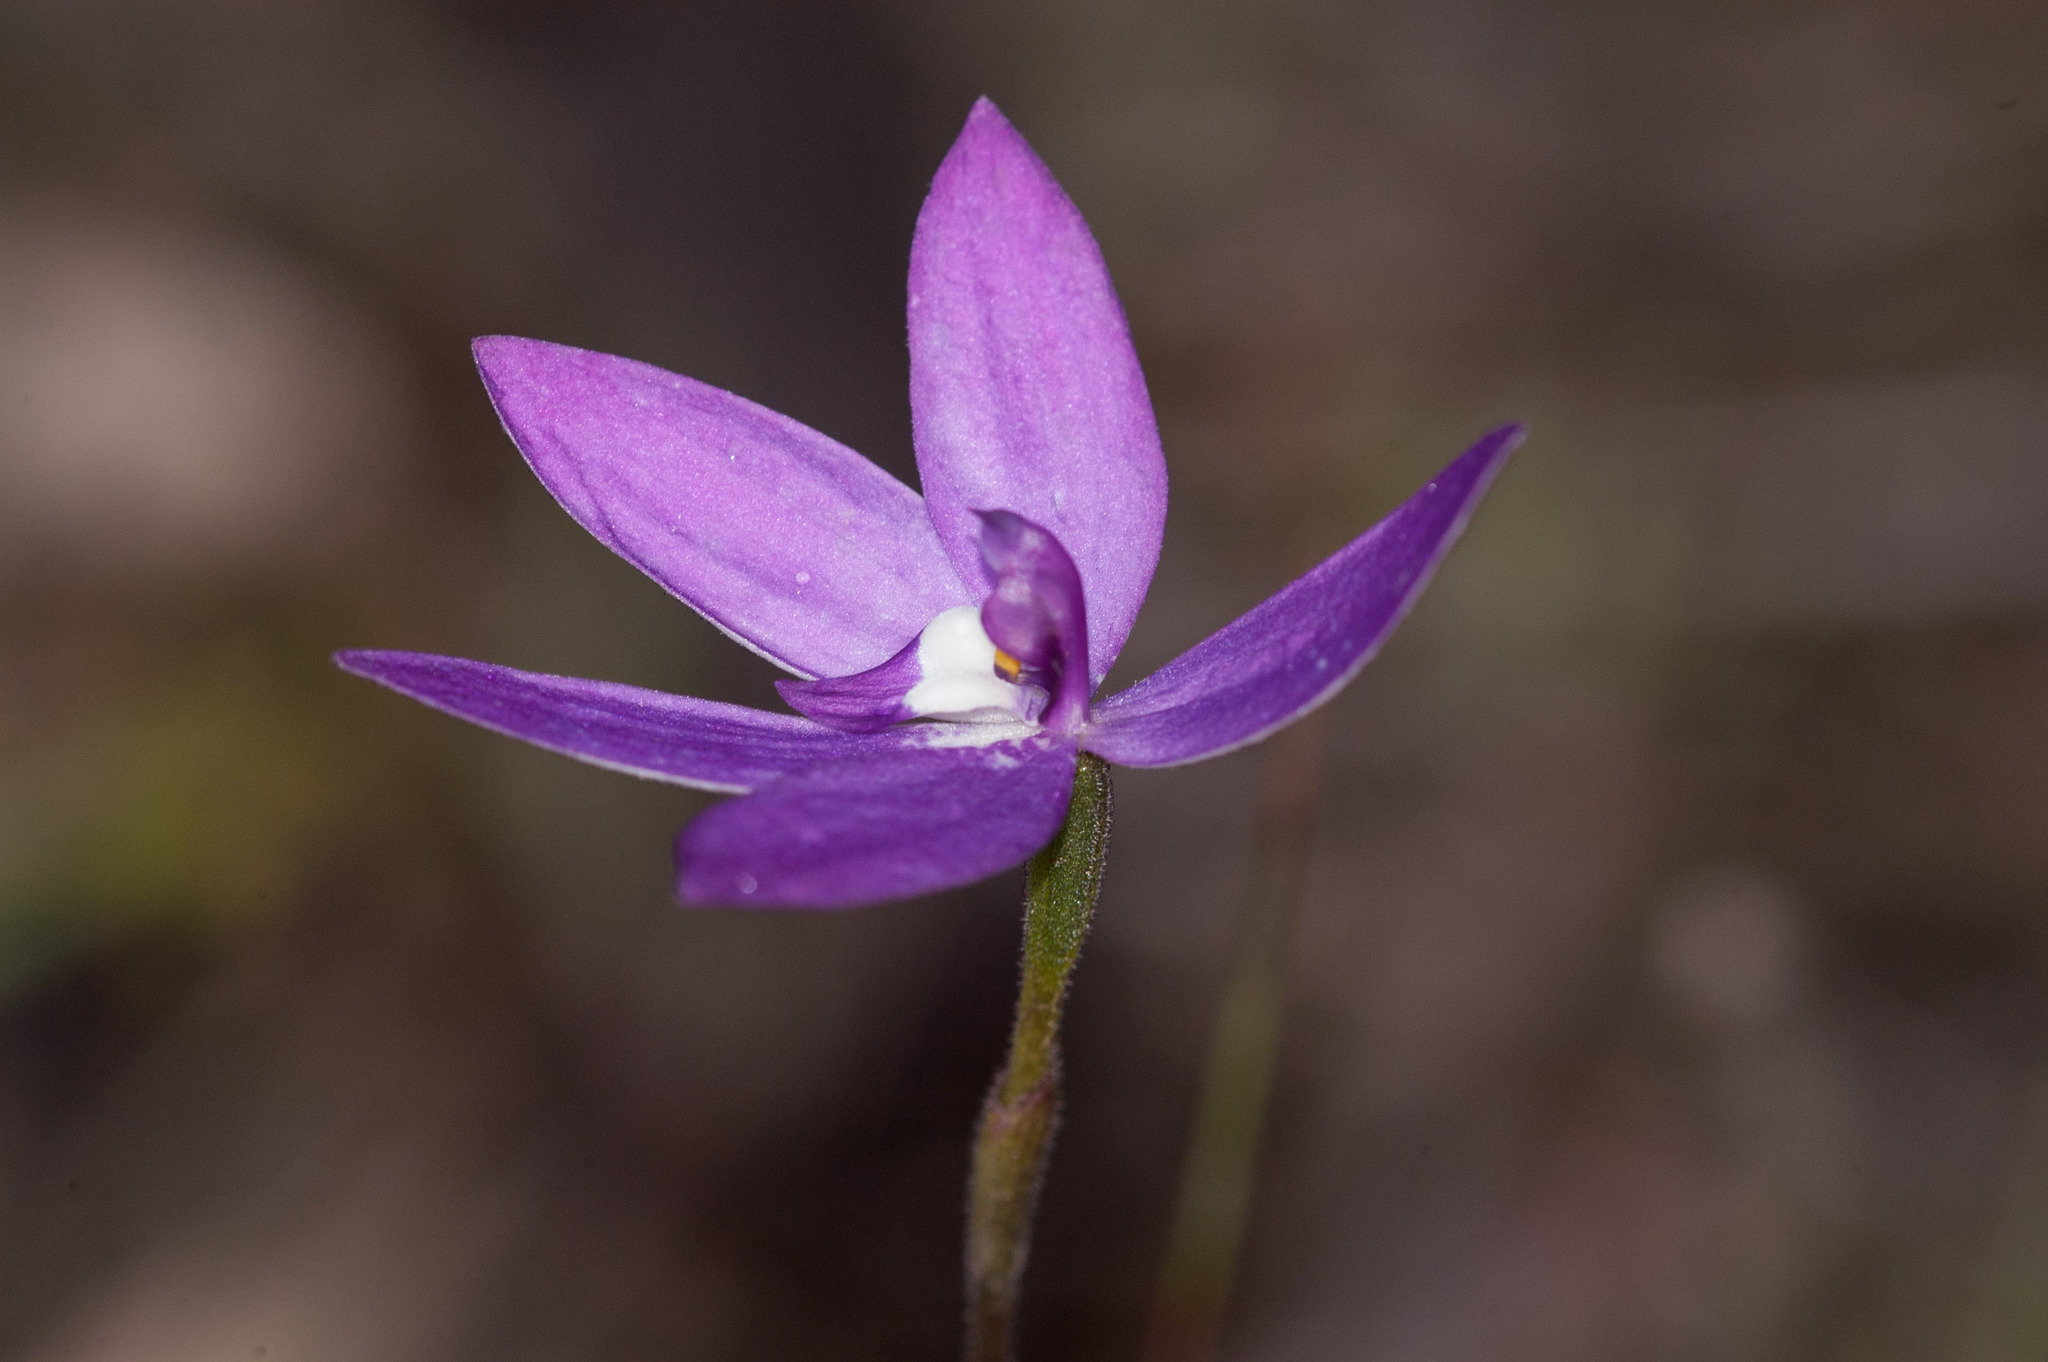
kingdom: Plantae
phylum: Tracheophyta
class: Liliopsida
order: Asparagales
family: Orchidaceae
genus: Caladenia
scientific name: Caladenia major
